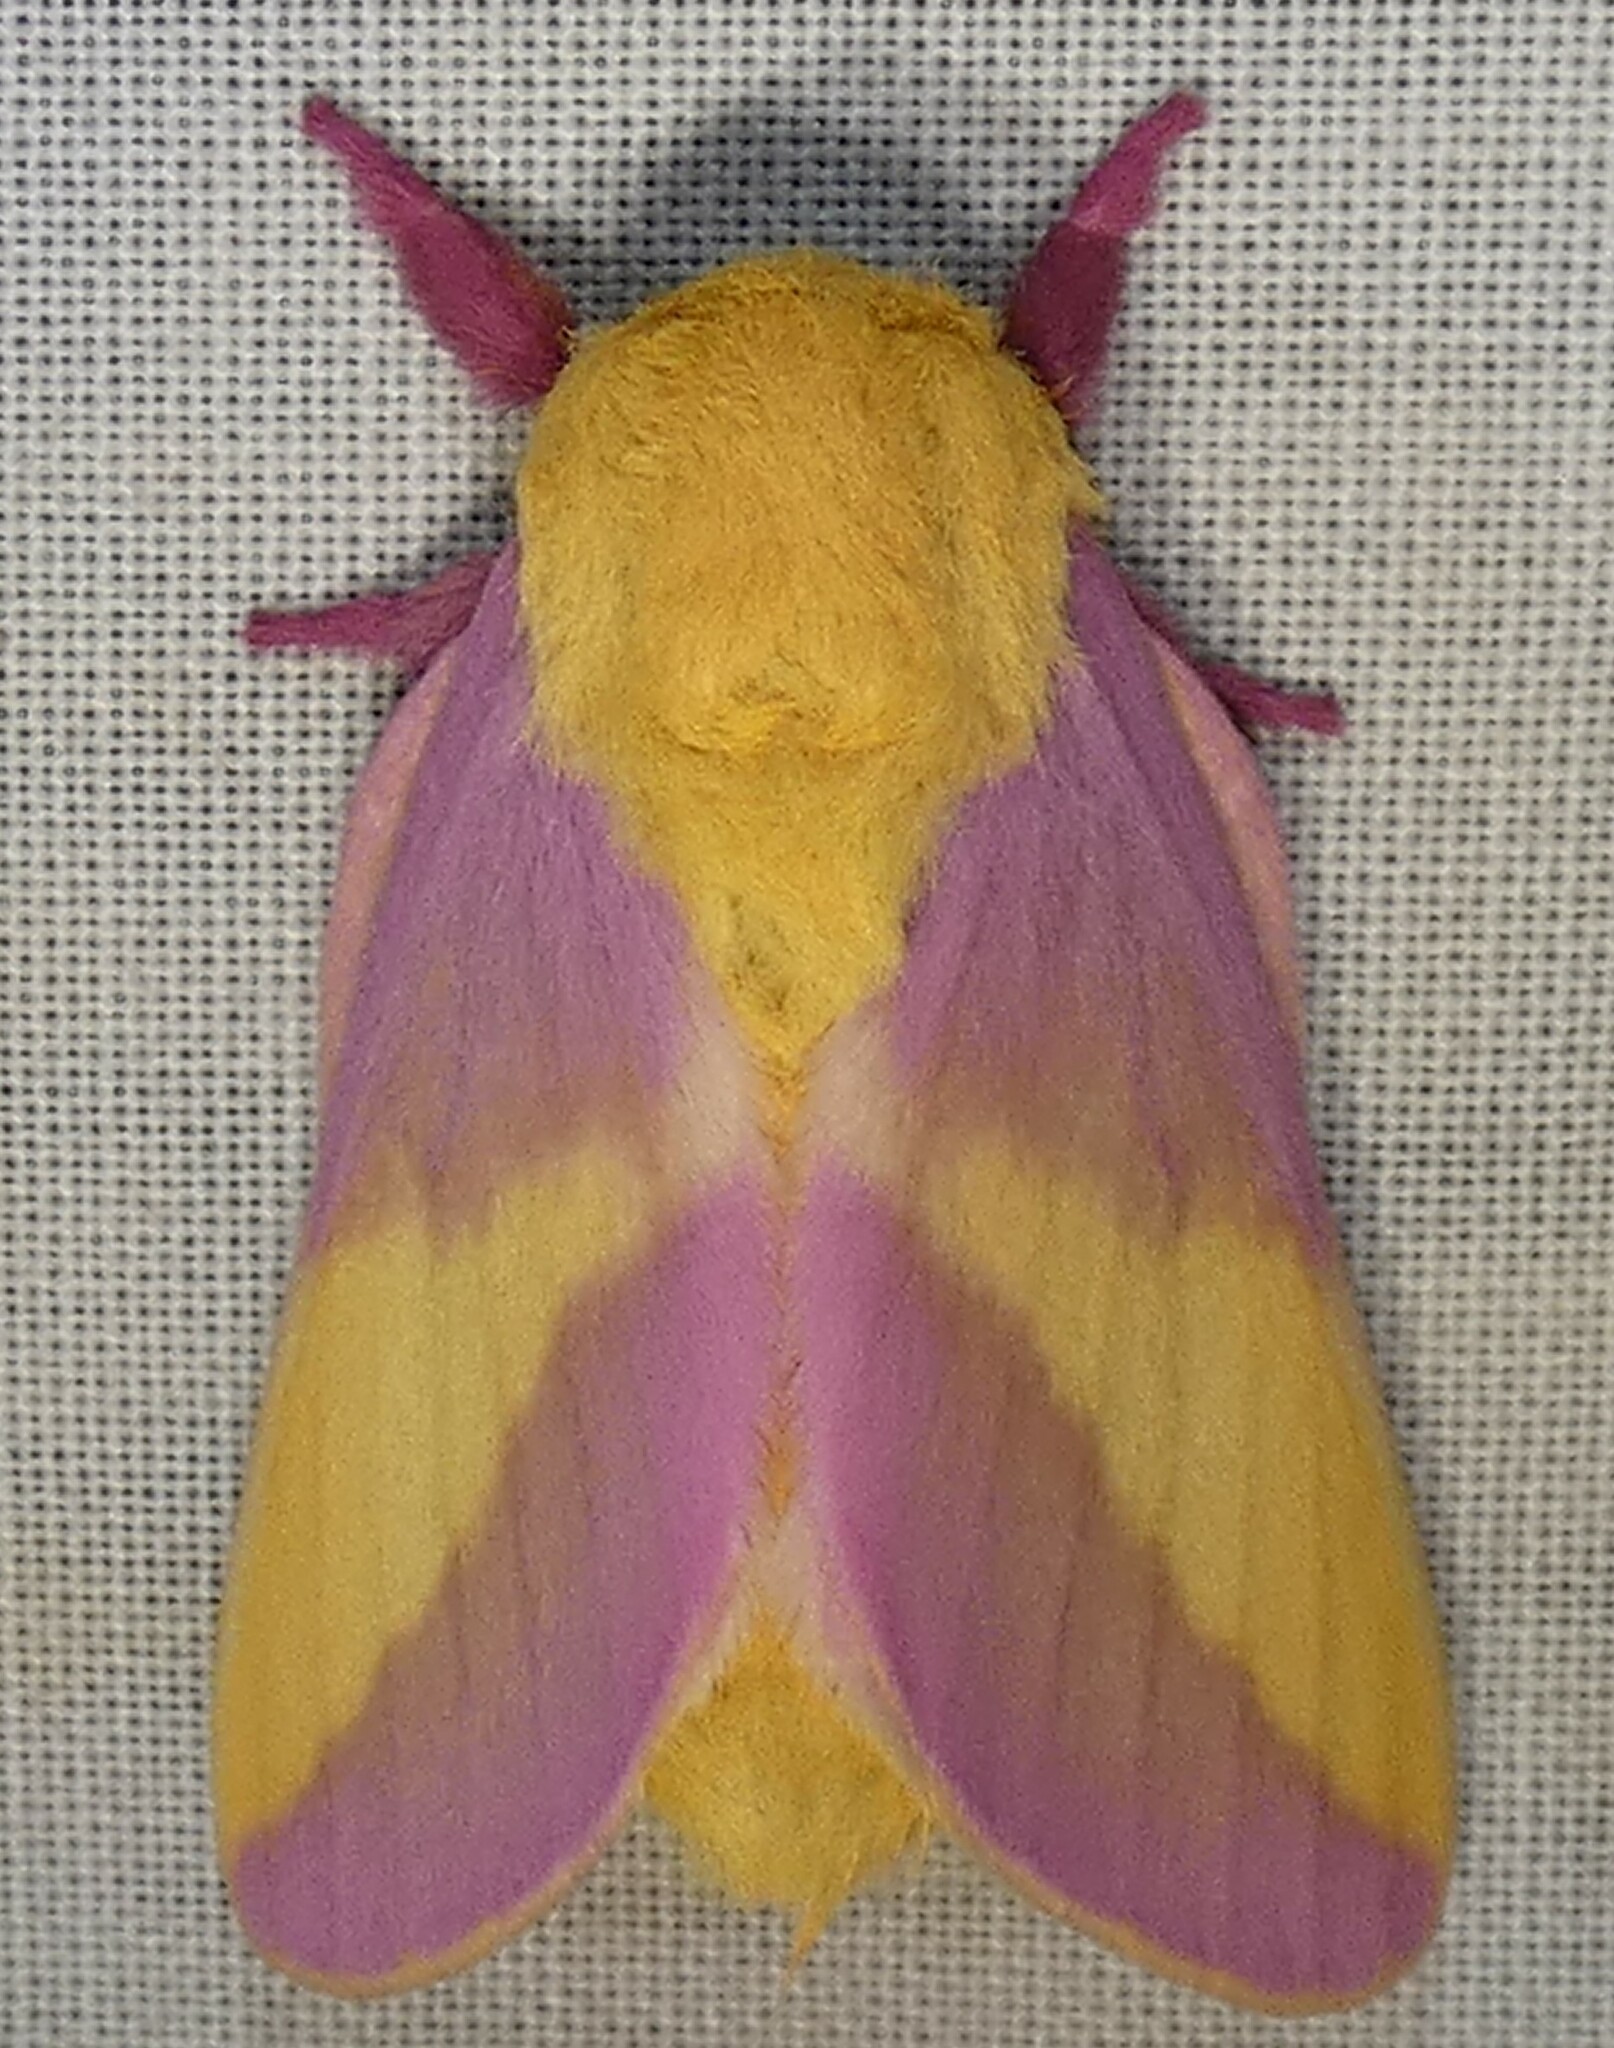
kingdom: Animalia
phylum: Arthropoda
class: Insecta
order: Lepidoptera
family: Saturniidae
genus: Dryocampa
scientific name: Dryocampa rubicunda
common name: Rosy maple moth
